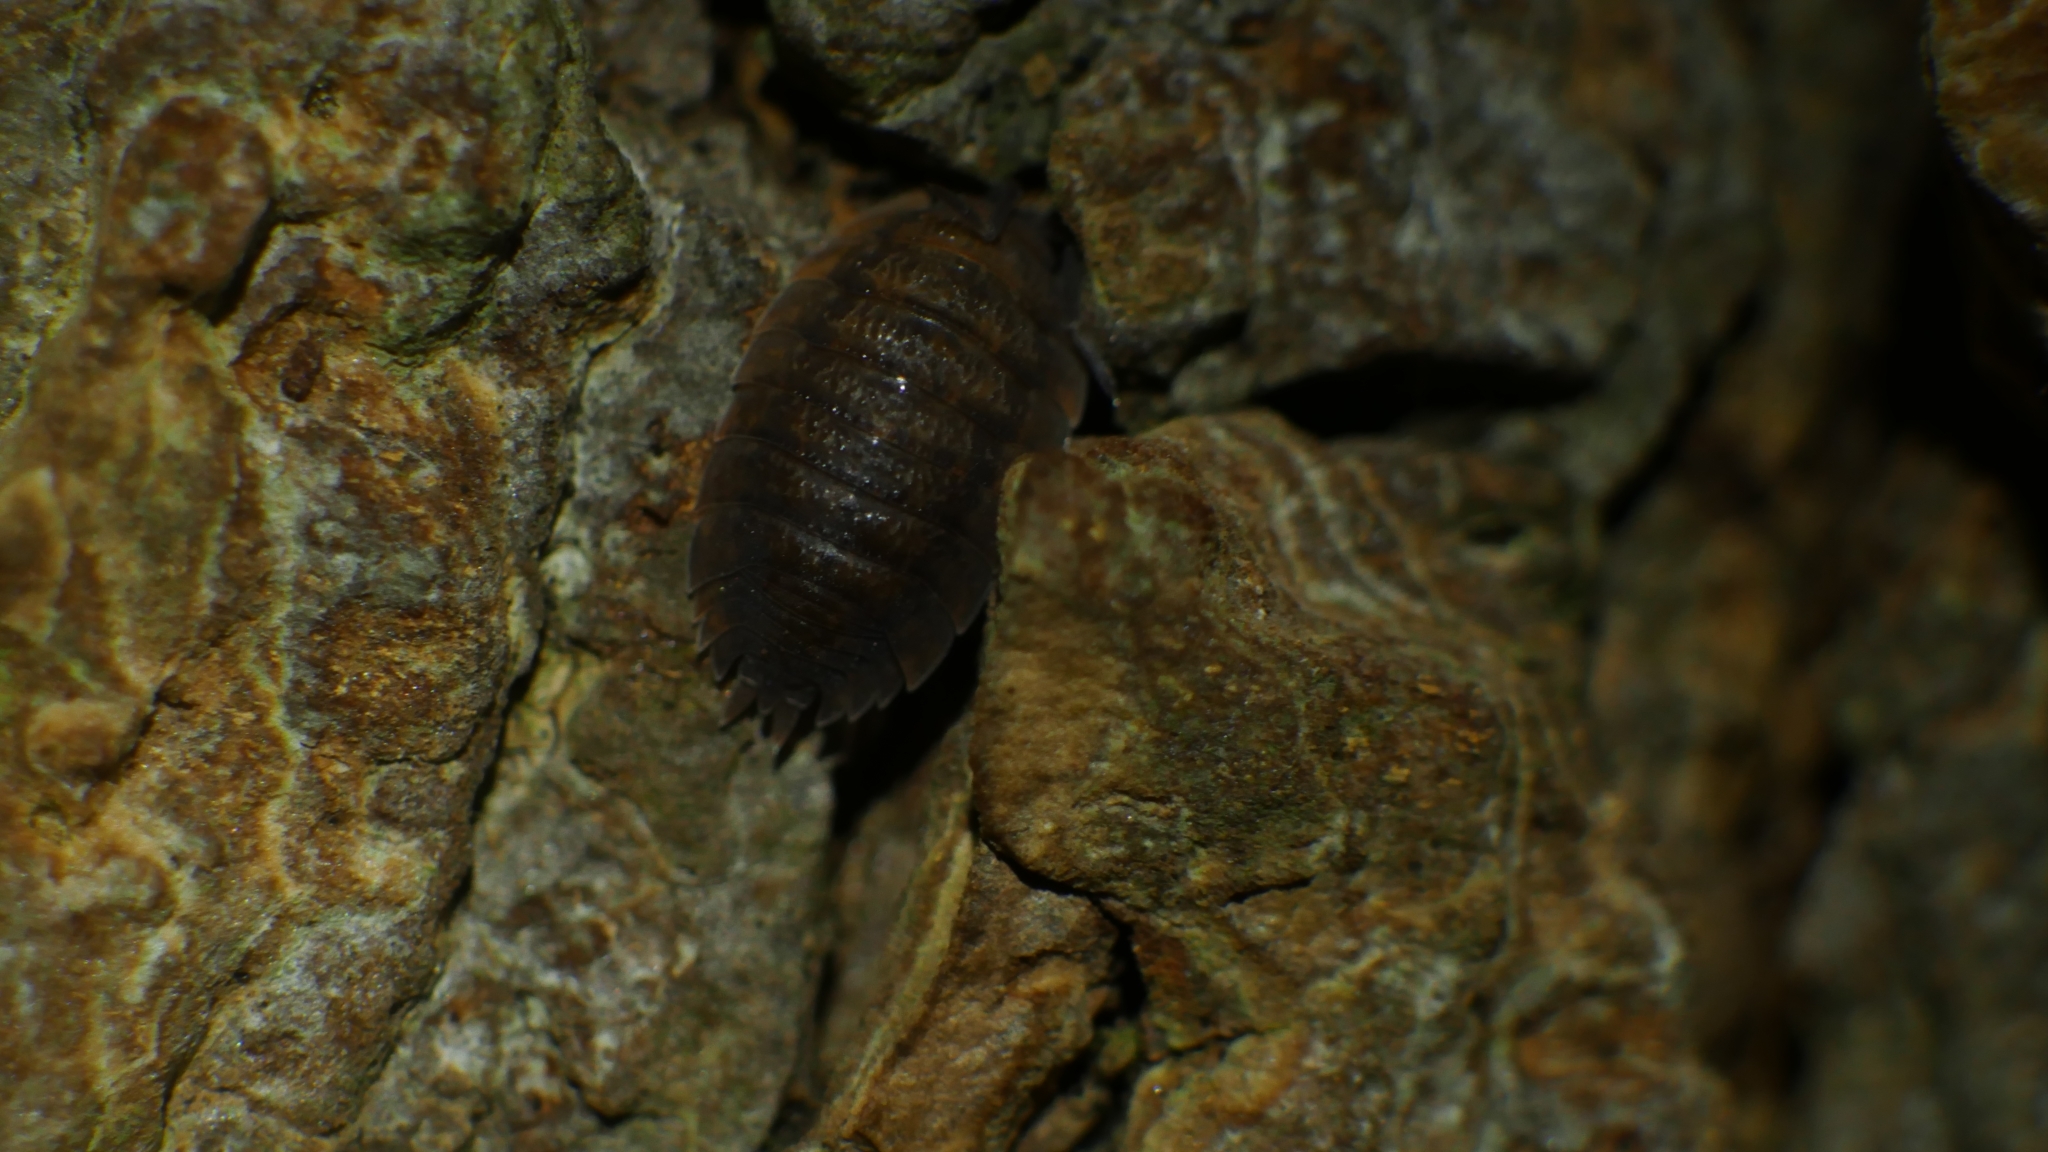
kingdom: Animalia
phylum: Arthropoda
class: Malacostraca
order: Isopoda
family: Porcellionidae
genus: Porcellio
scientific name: Porcellio scaber
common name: Common rough woodlouse
